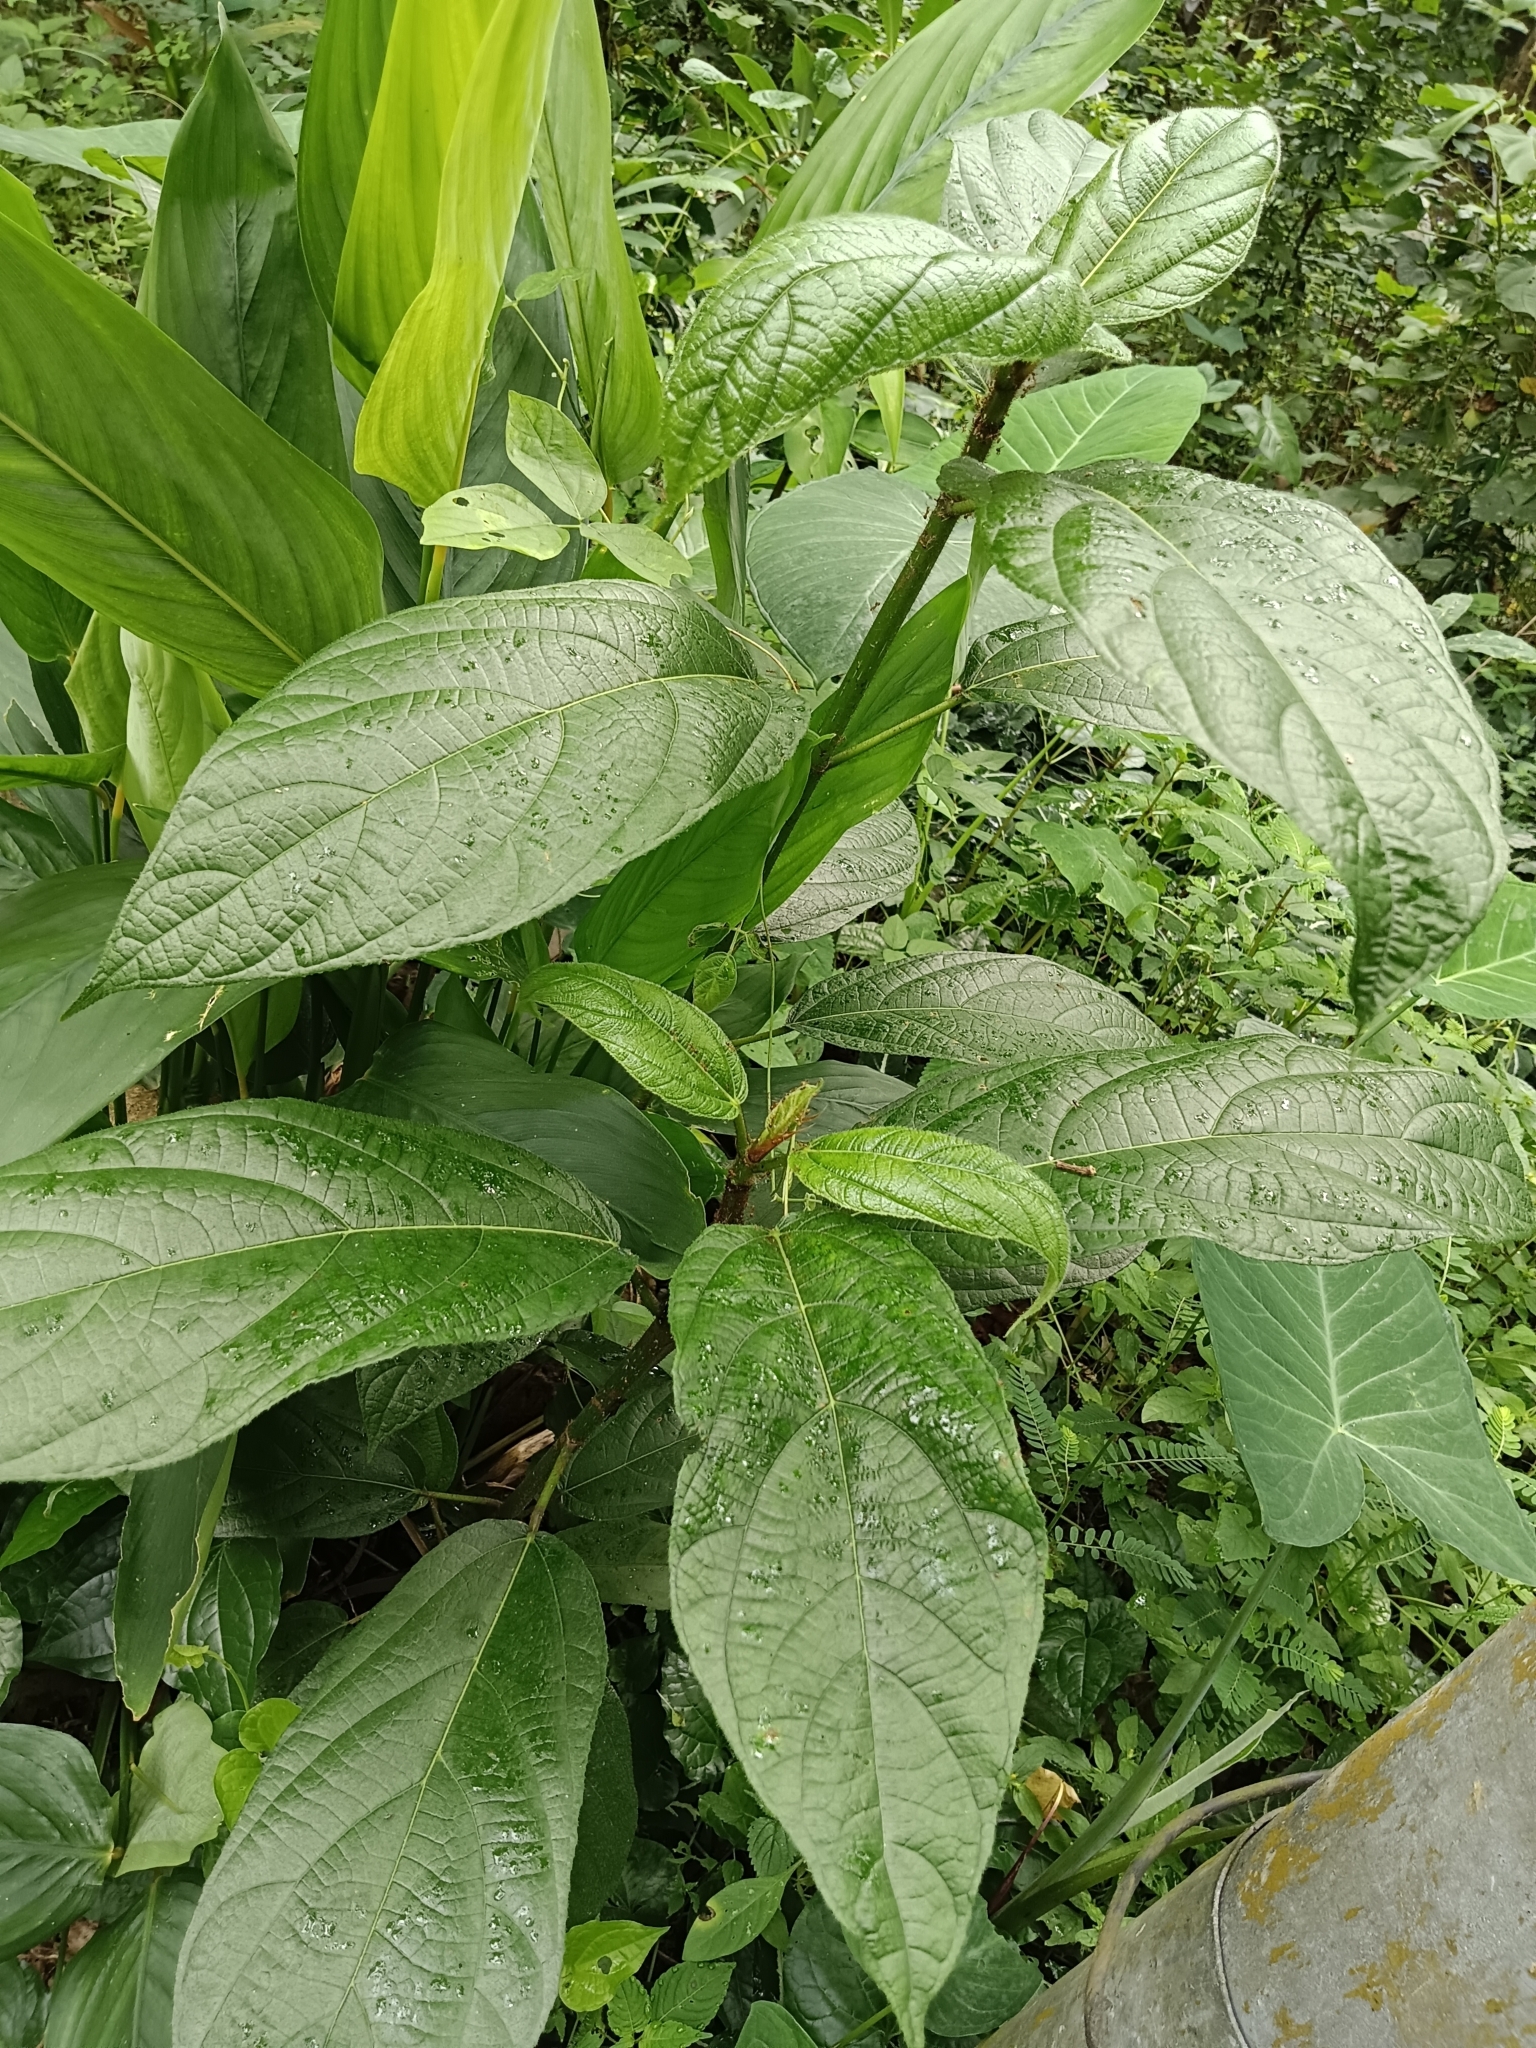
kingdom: Plantae
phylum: Tracheophyta
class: Magnoliopsida
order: Rosales
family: Moraceae
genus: Ficus
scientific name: Ficus hispida
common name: Hairy fig
